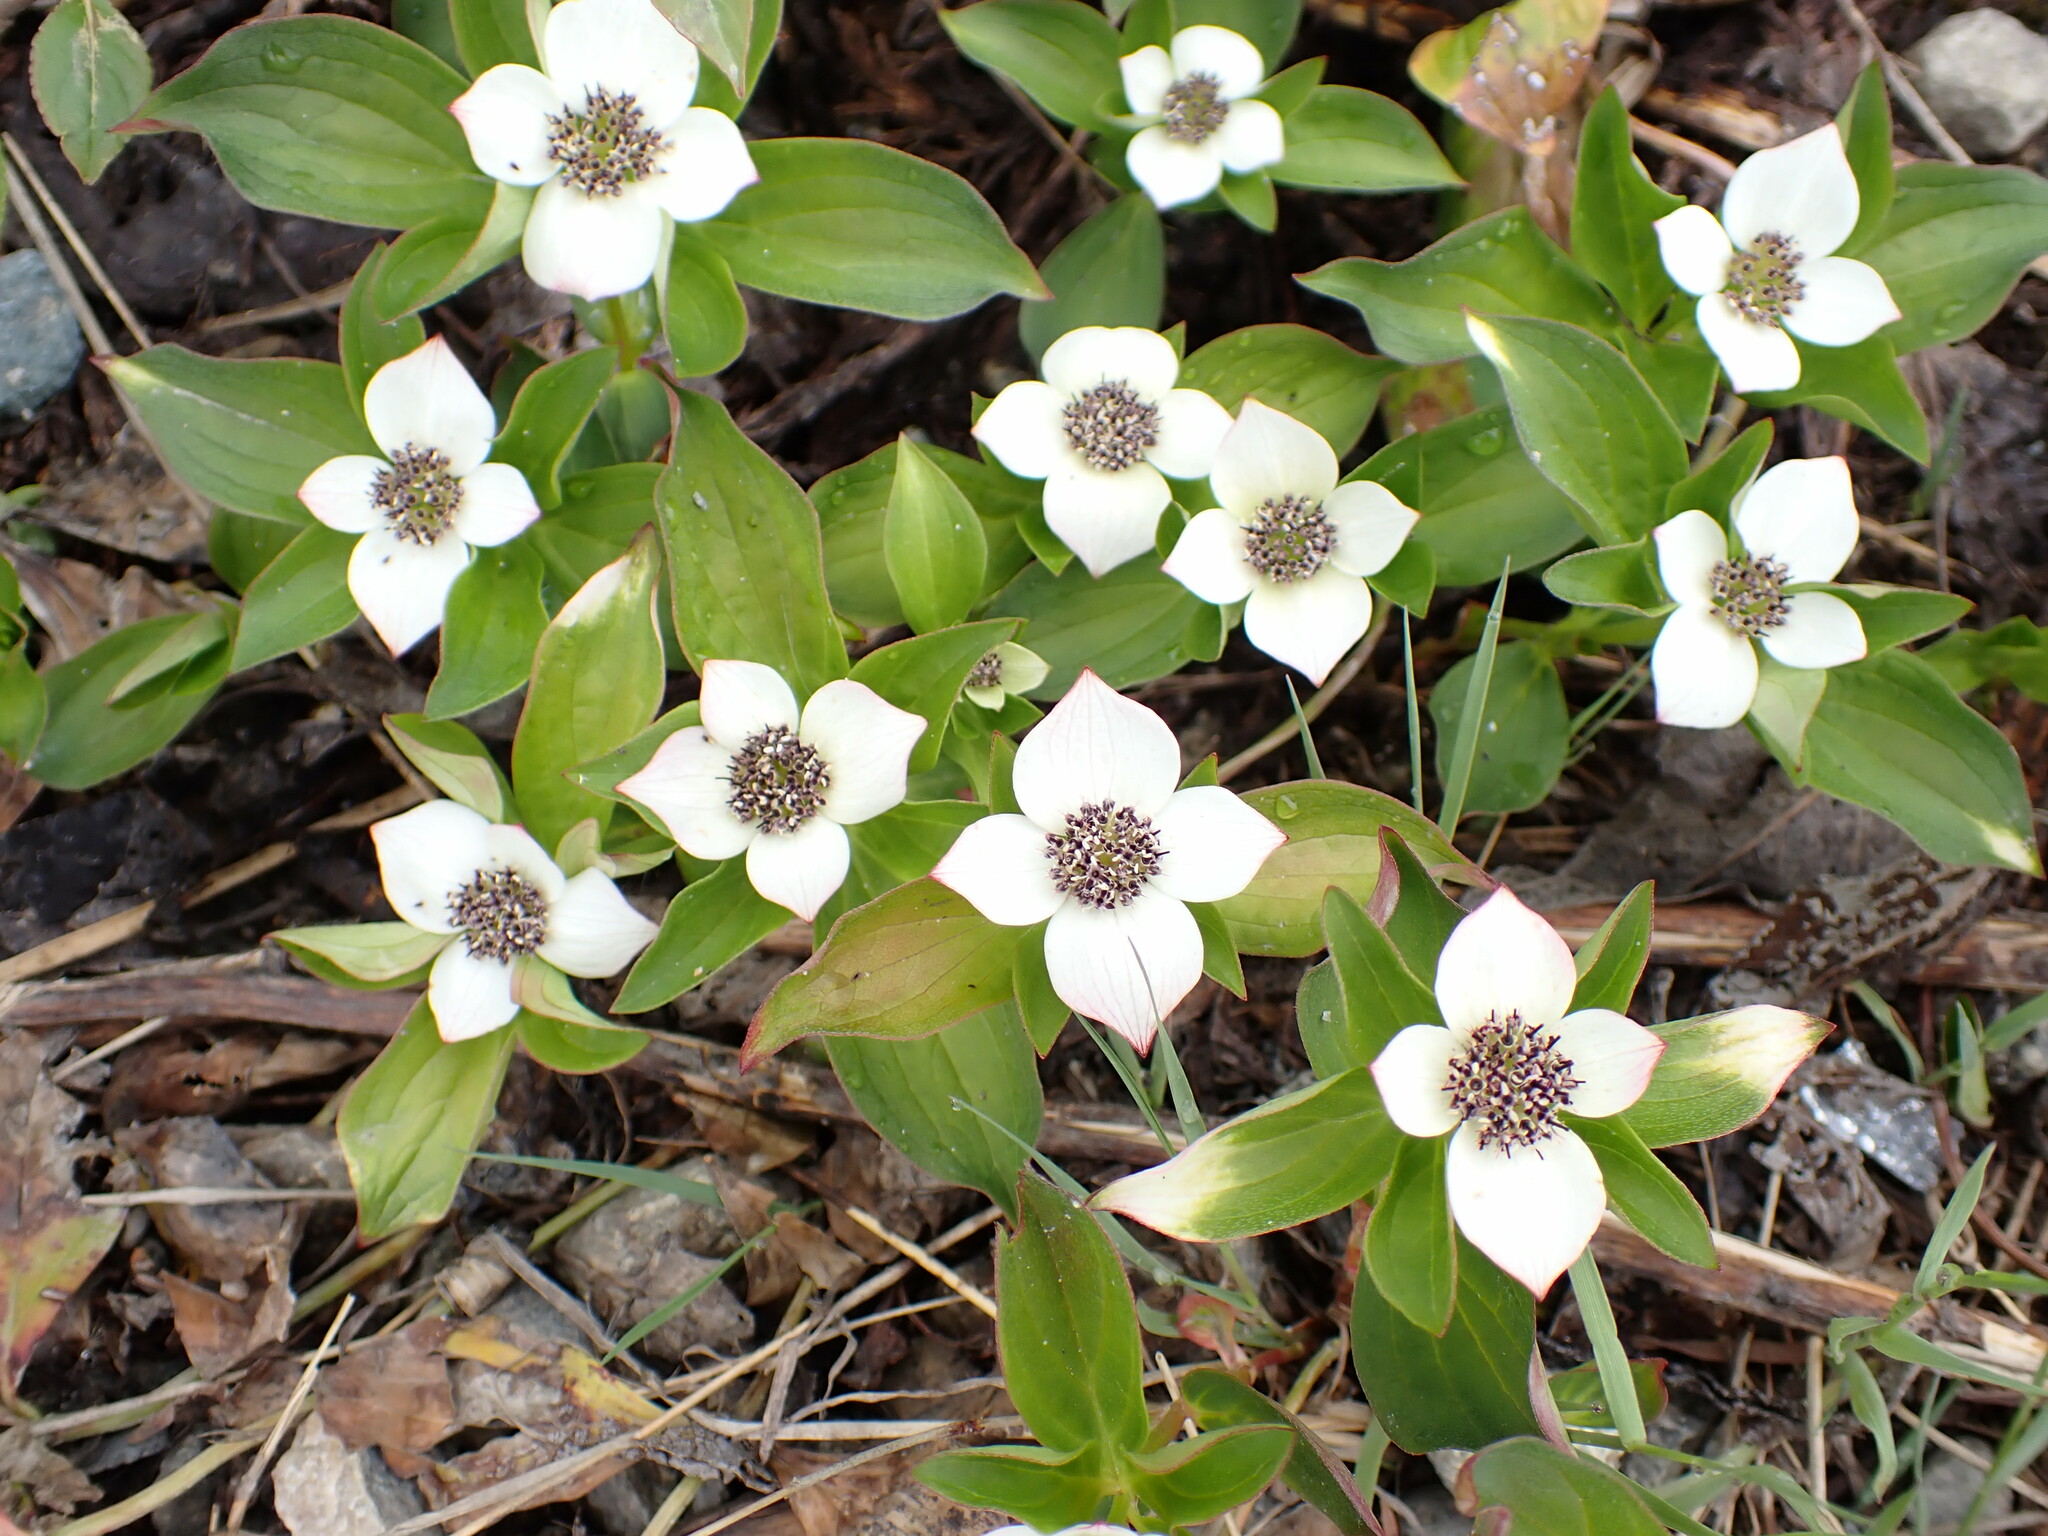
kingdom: Plantae
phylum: Tracheophyta
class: Magnoliopsida
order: Cornales
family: Cornaceae
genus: Cornus
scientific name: Cornus unalaschkensis
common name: Alaska bunchberry
